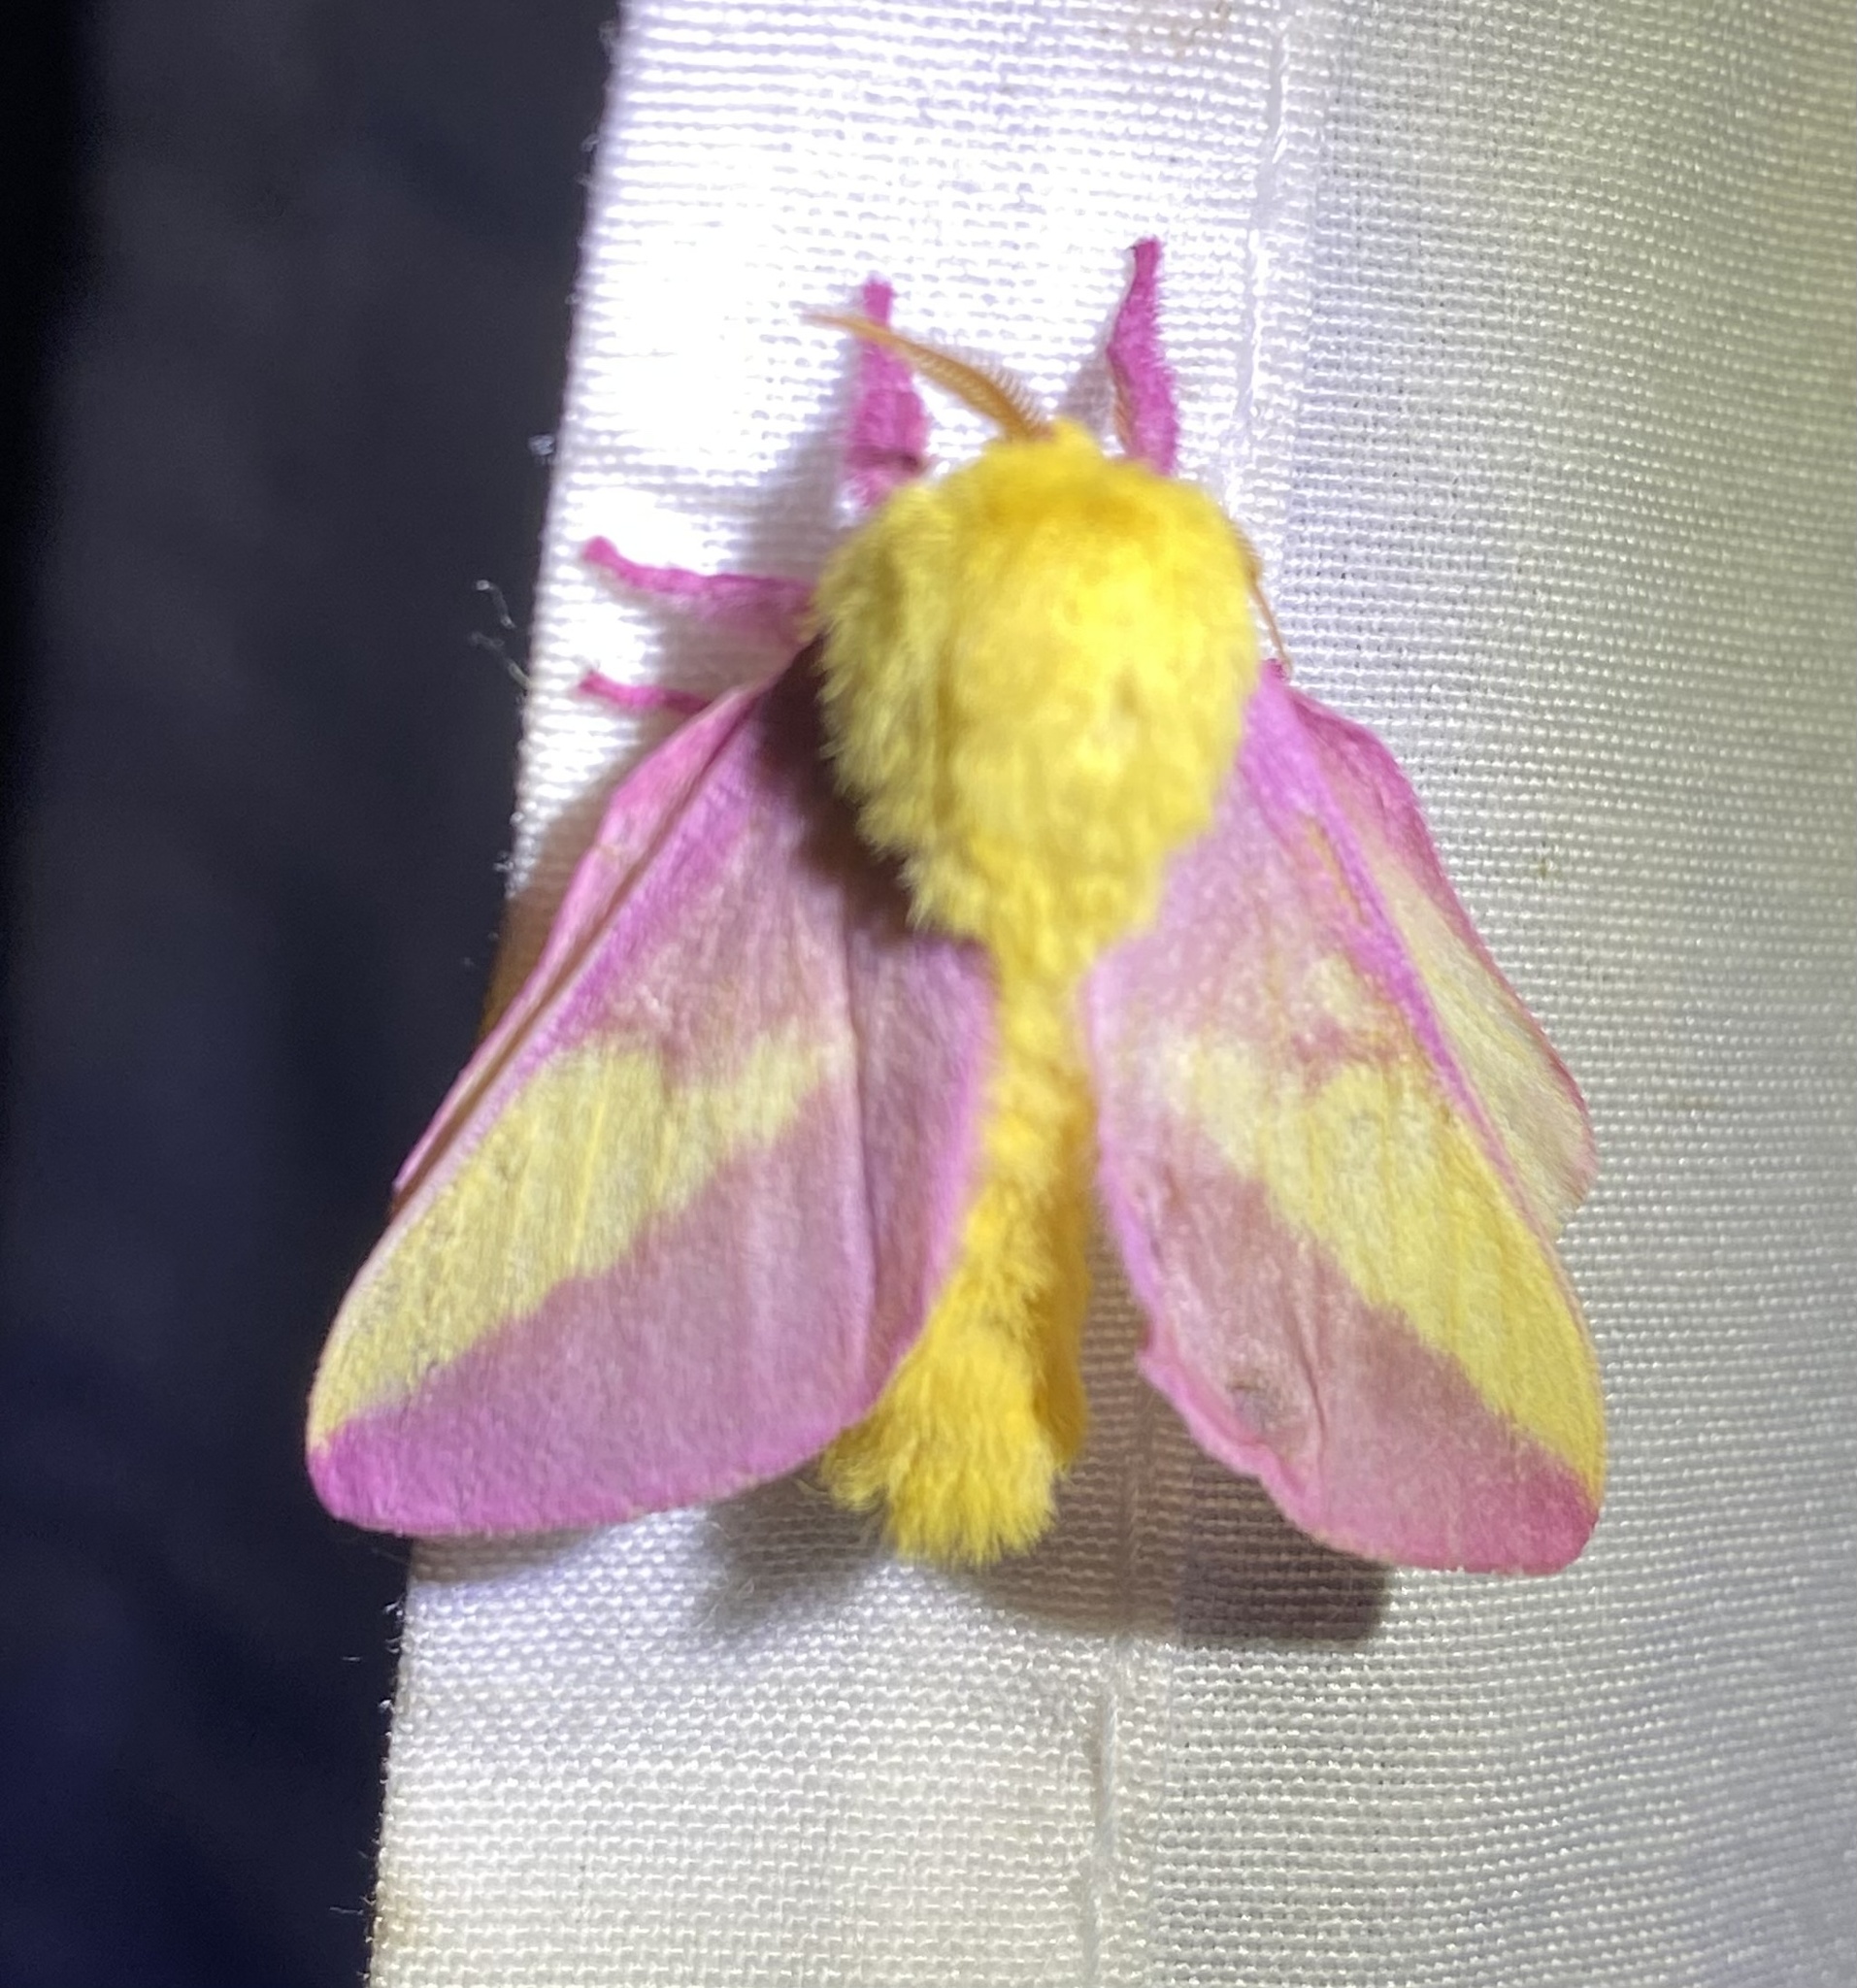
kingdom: Animalia
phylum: Arthropoda
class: Insecta
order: Lepidoptera
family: Saturniidae
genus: Dryocampa
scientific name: Dryocampa rubicunda
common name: Rosy maple moth
